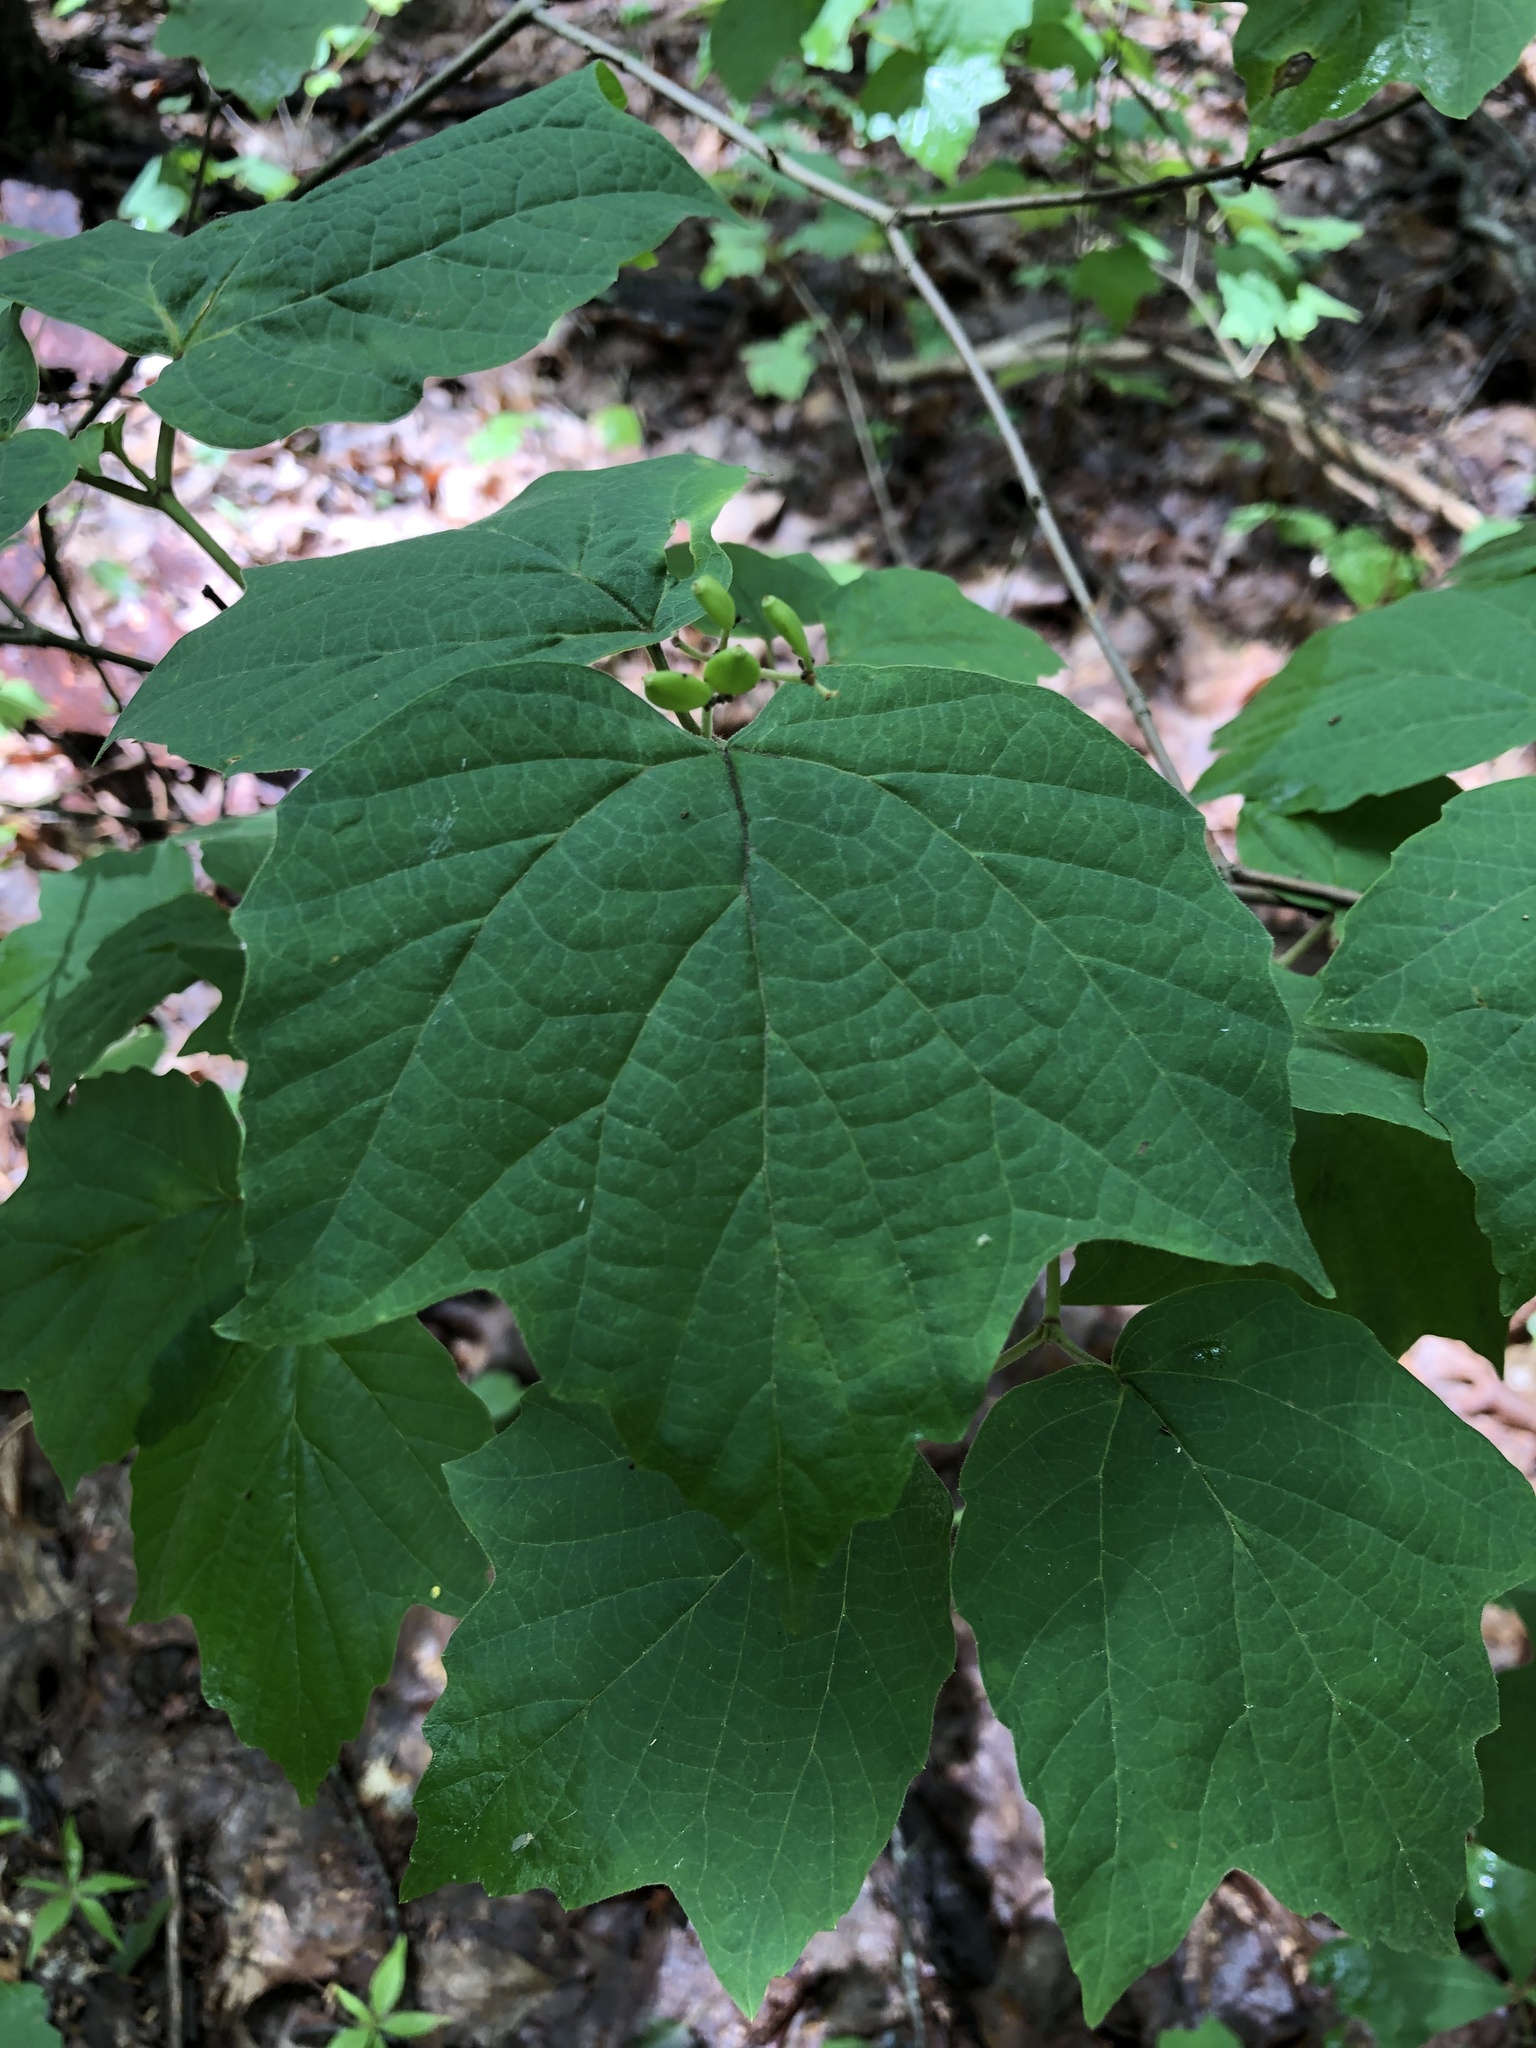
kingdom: Plantae
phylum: Tracheophyta
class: Magnoliopsida
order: Dipsacales
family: Viburnaceae
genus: Viburnum
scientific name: Viburnum acerifolium
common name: Dockmackie
